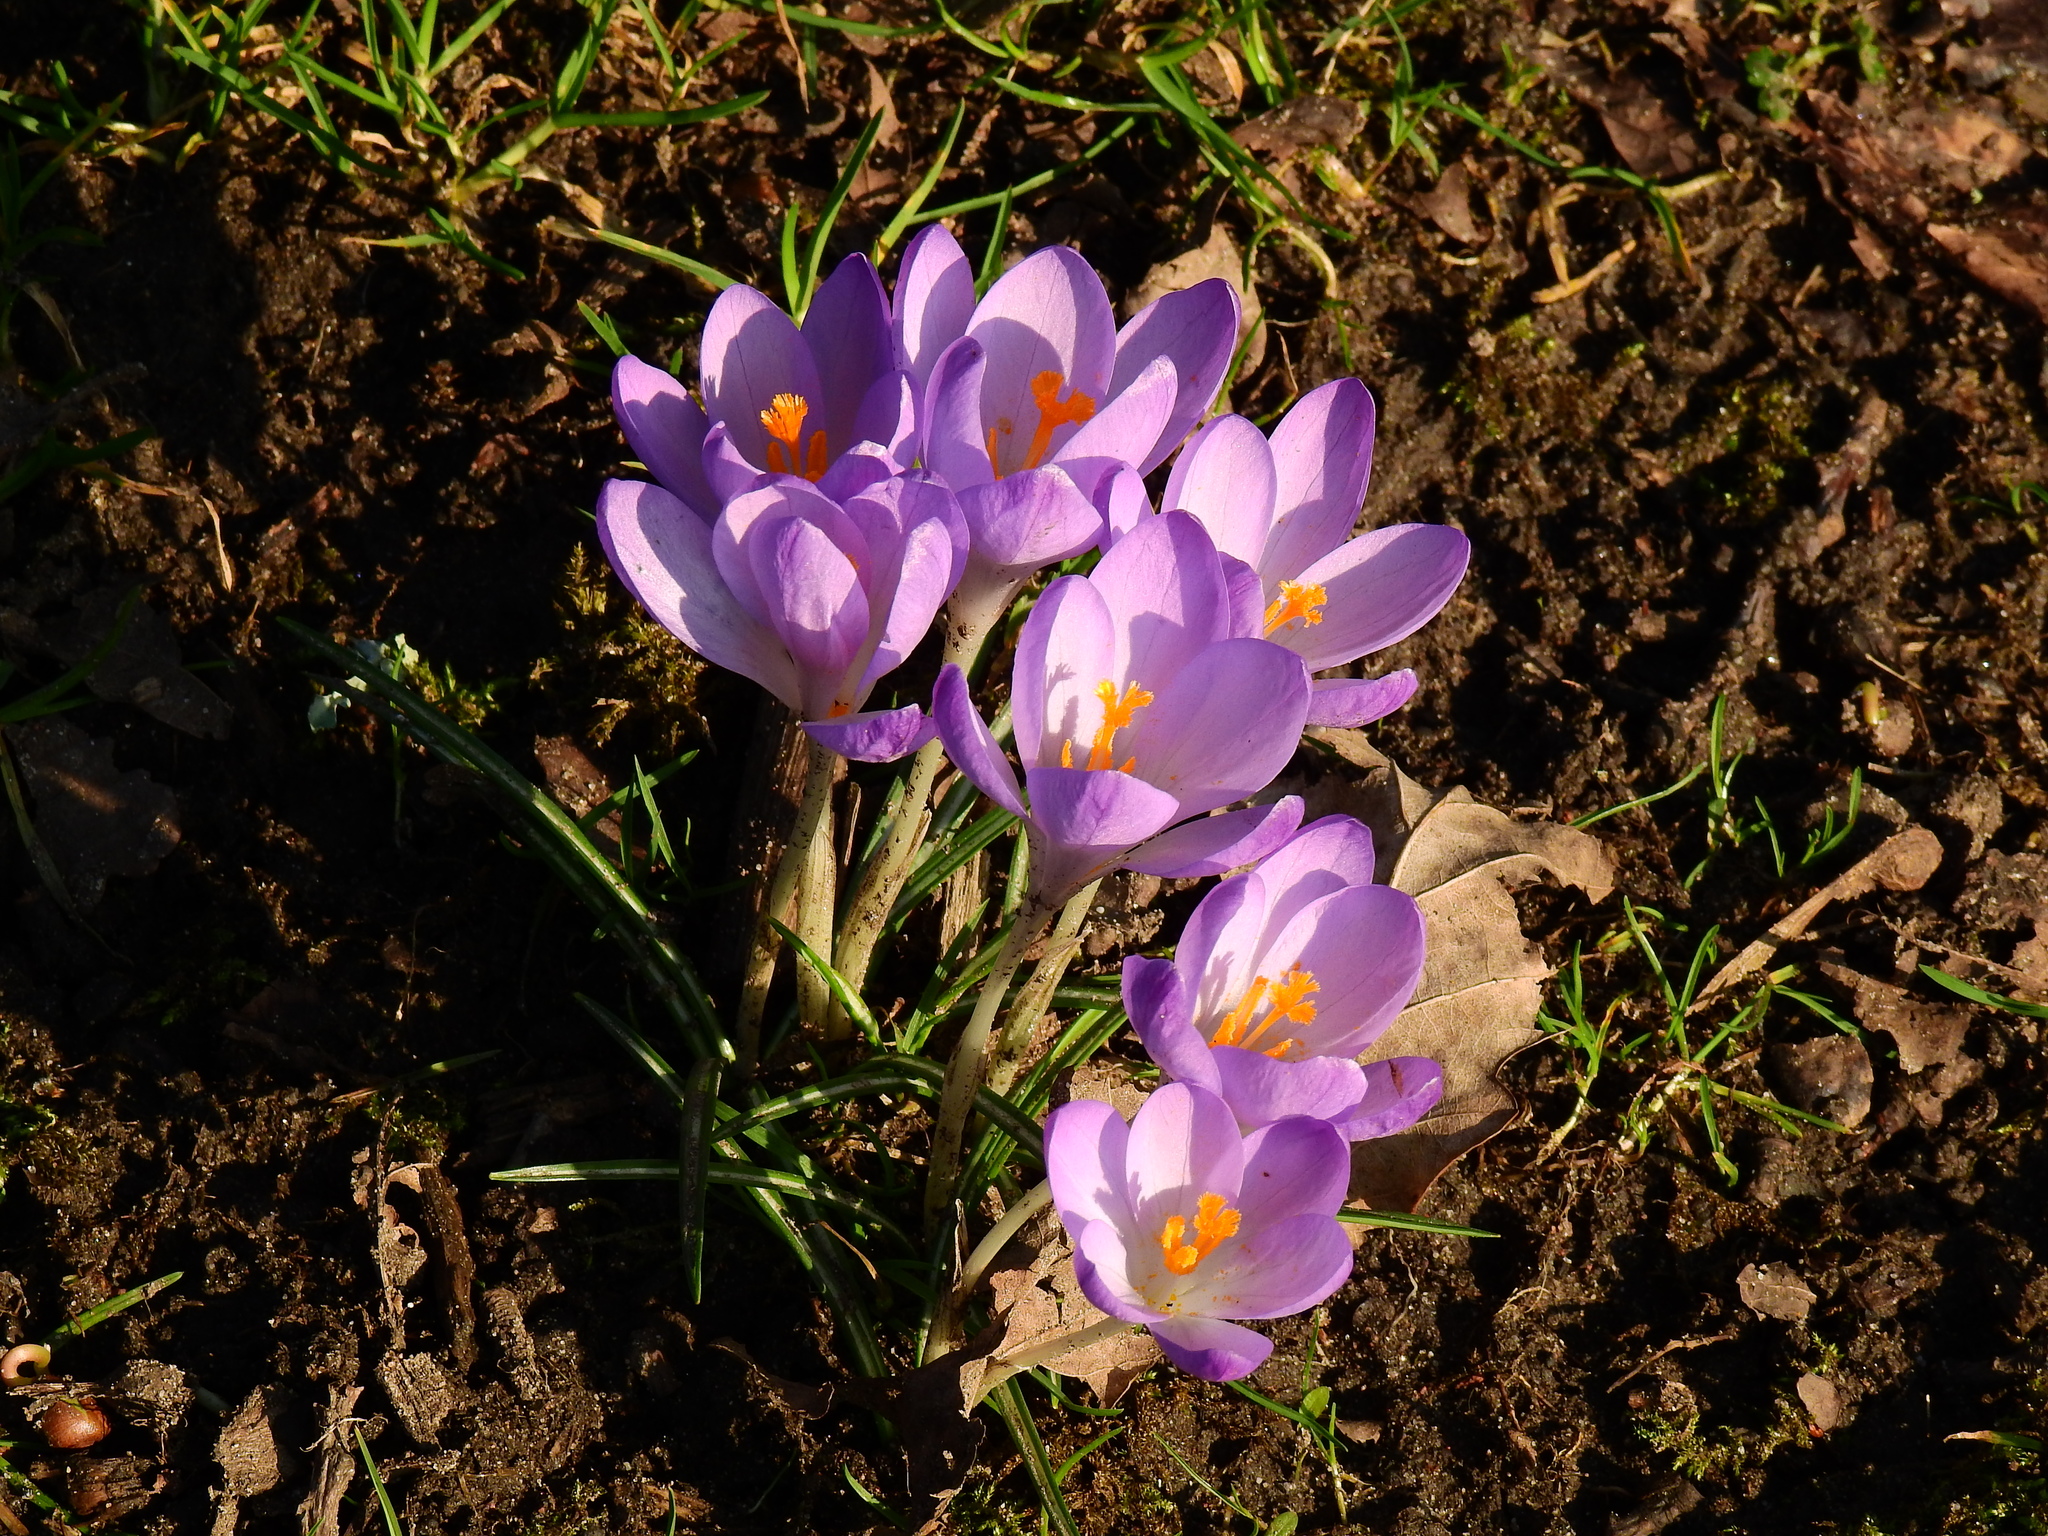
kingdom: Plantae
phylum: Tracheophyta
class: Liliopsida
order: Asparagales
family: Iridaceae
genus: Crocus
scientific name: Crocus tommasinianus
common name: Early crocus
